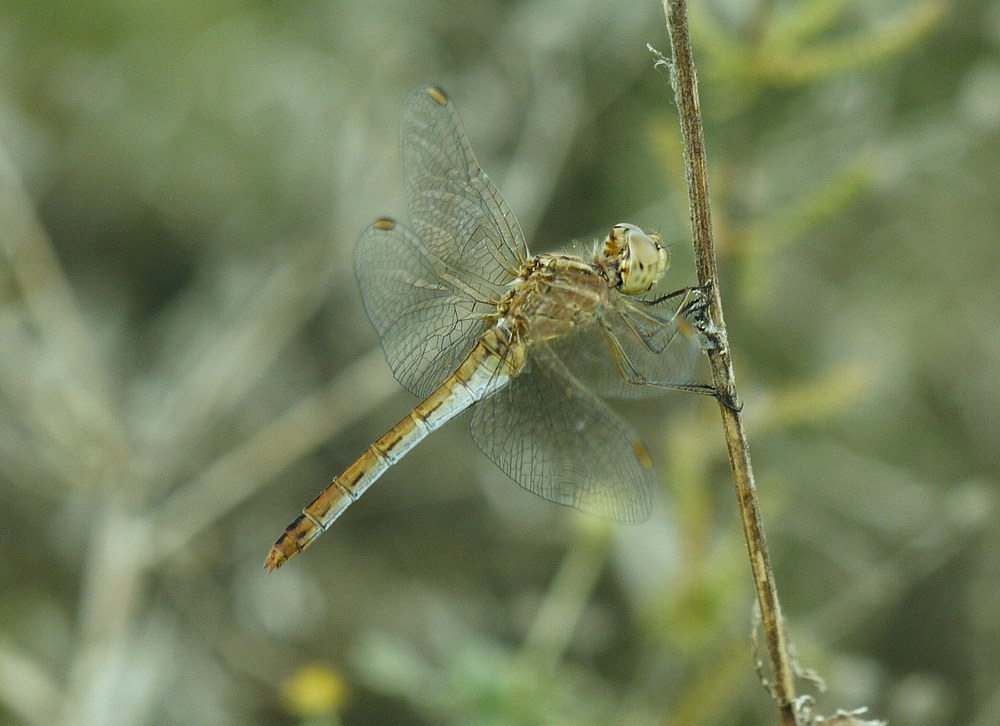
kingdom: Animalia
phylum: Arthropoda
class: Insecta
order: Odonata
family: Libellulidae
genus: Sympetrum
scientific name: Sympetrum meridionale
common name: Southern darter
